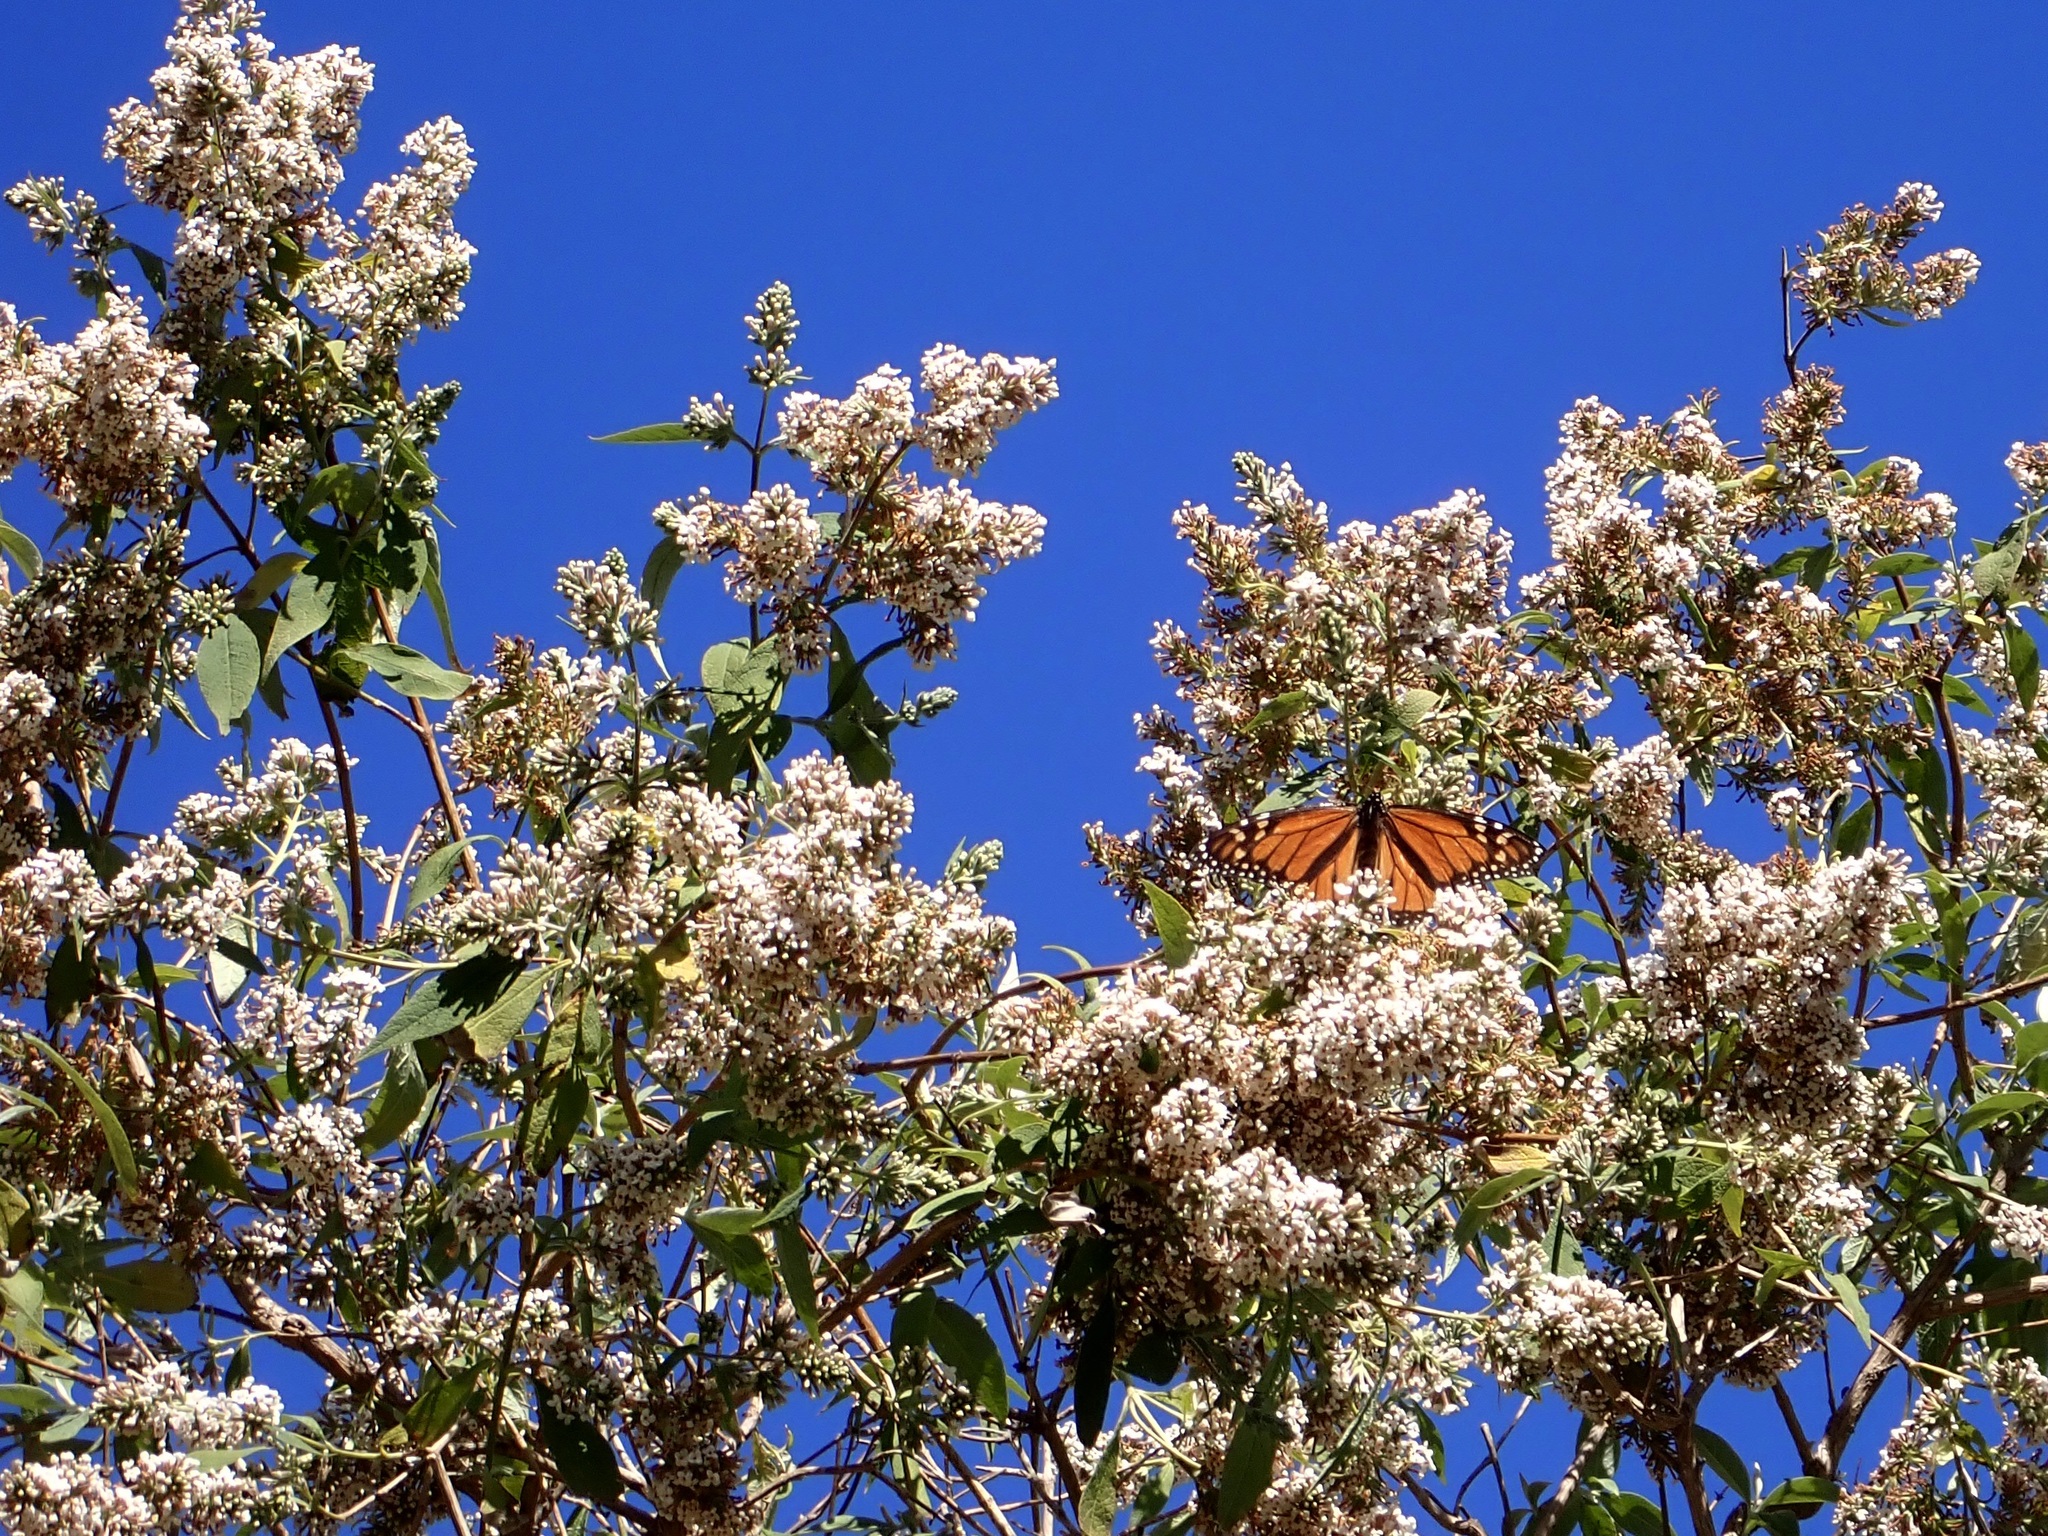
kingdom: Animalia
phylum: Arthropoda
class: Insecta
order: Lepidoptera
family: Nymphalidae
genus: Danaus
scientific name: Danaus plexippus
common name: Monarch
